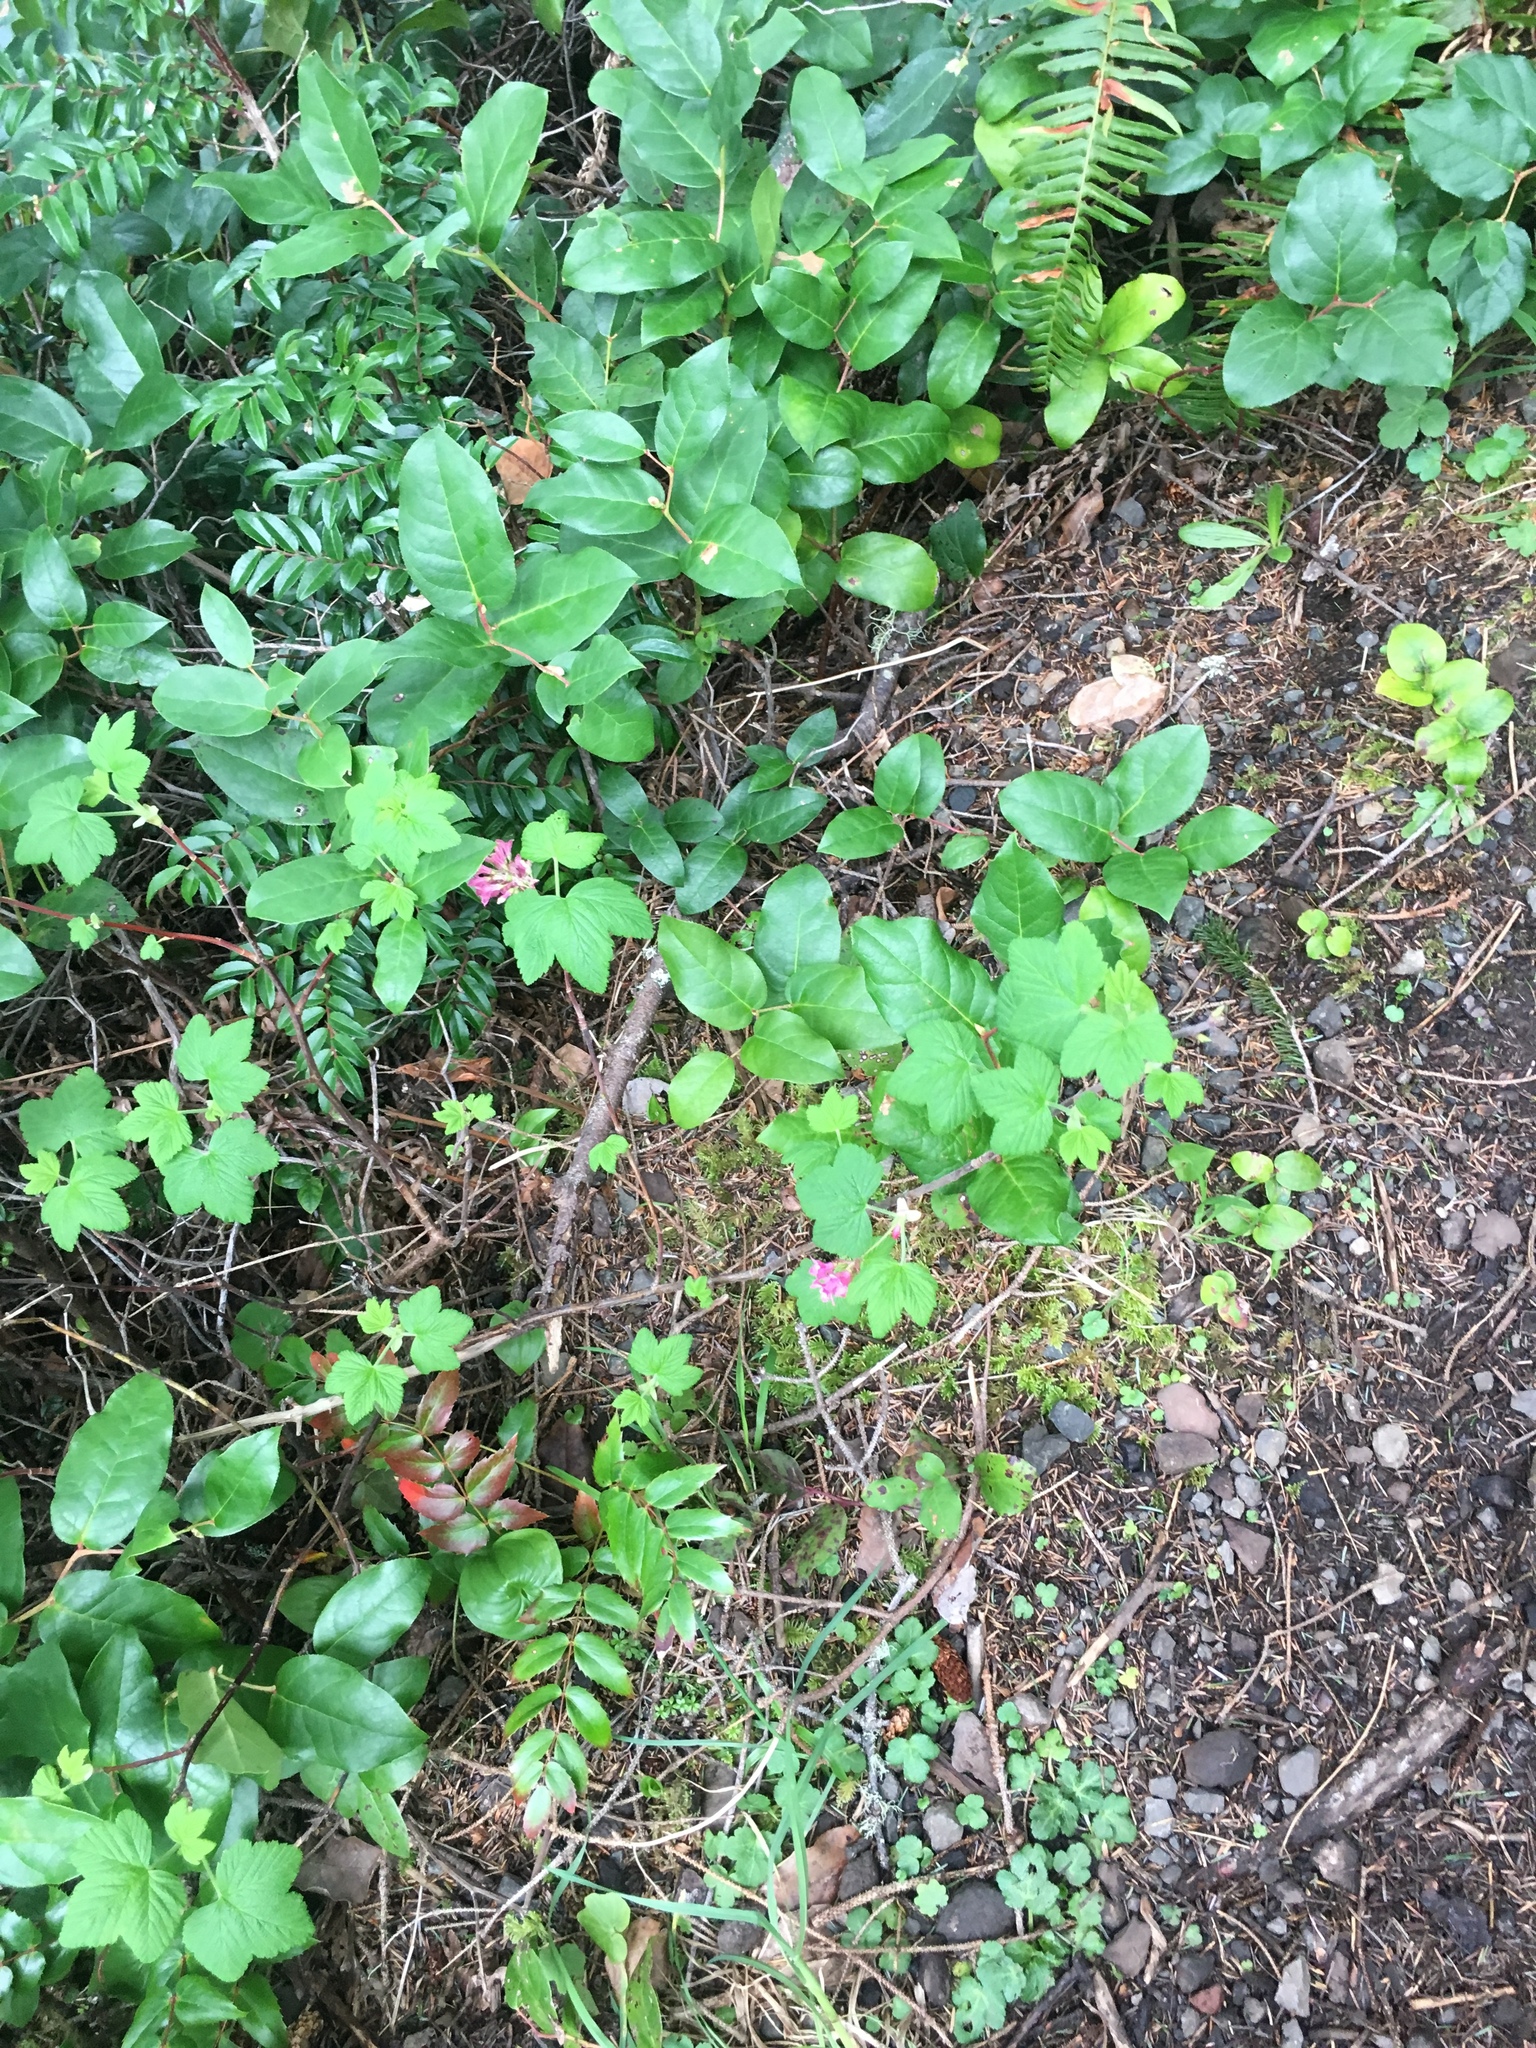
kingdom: Plantae
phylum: Tracheophyta
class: Magnoliopsida
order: Saxifragales
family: Grossulariaceae
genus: Ribes
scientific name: Ribes sanguineum
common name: Flowering currant
